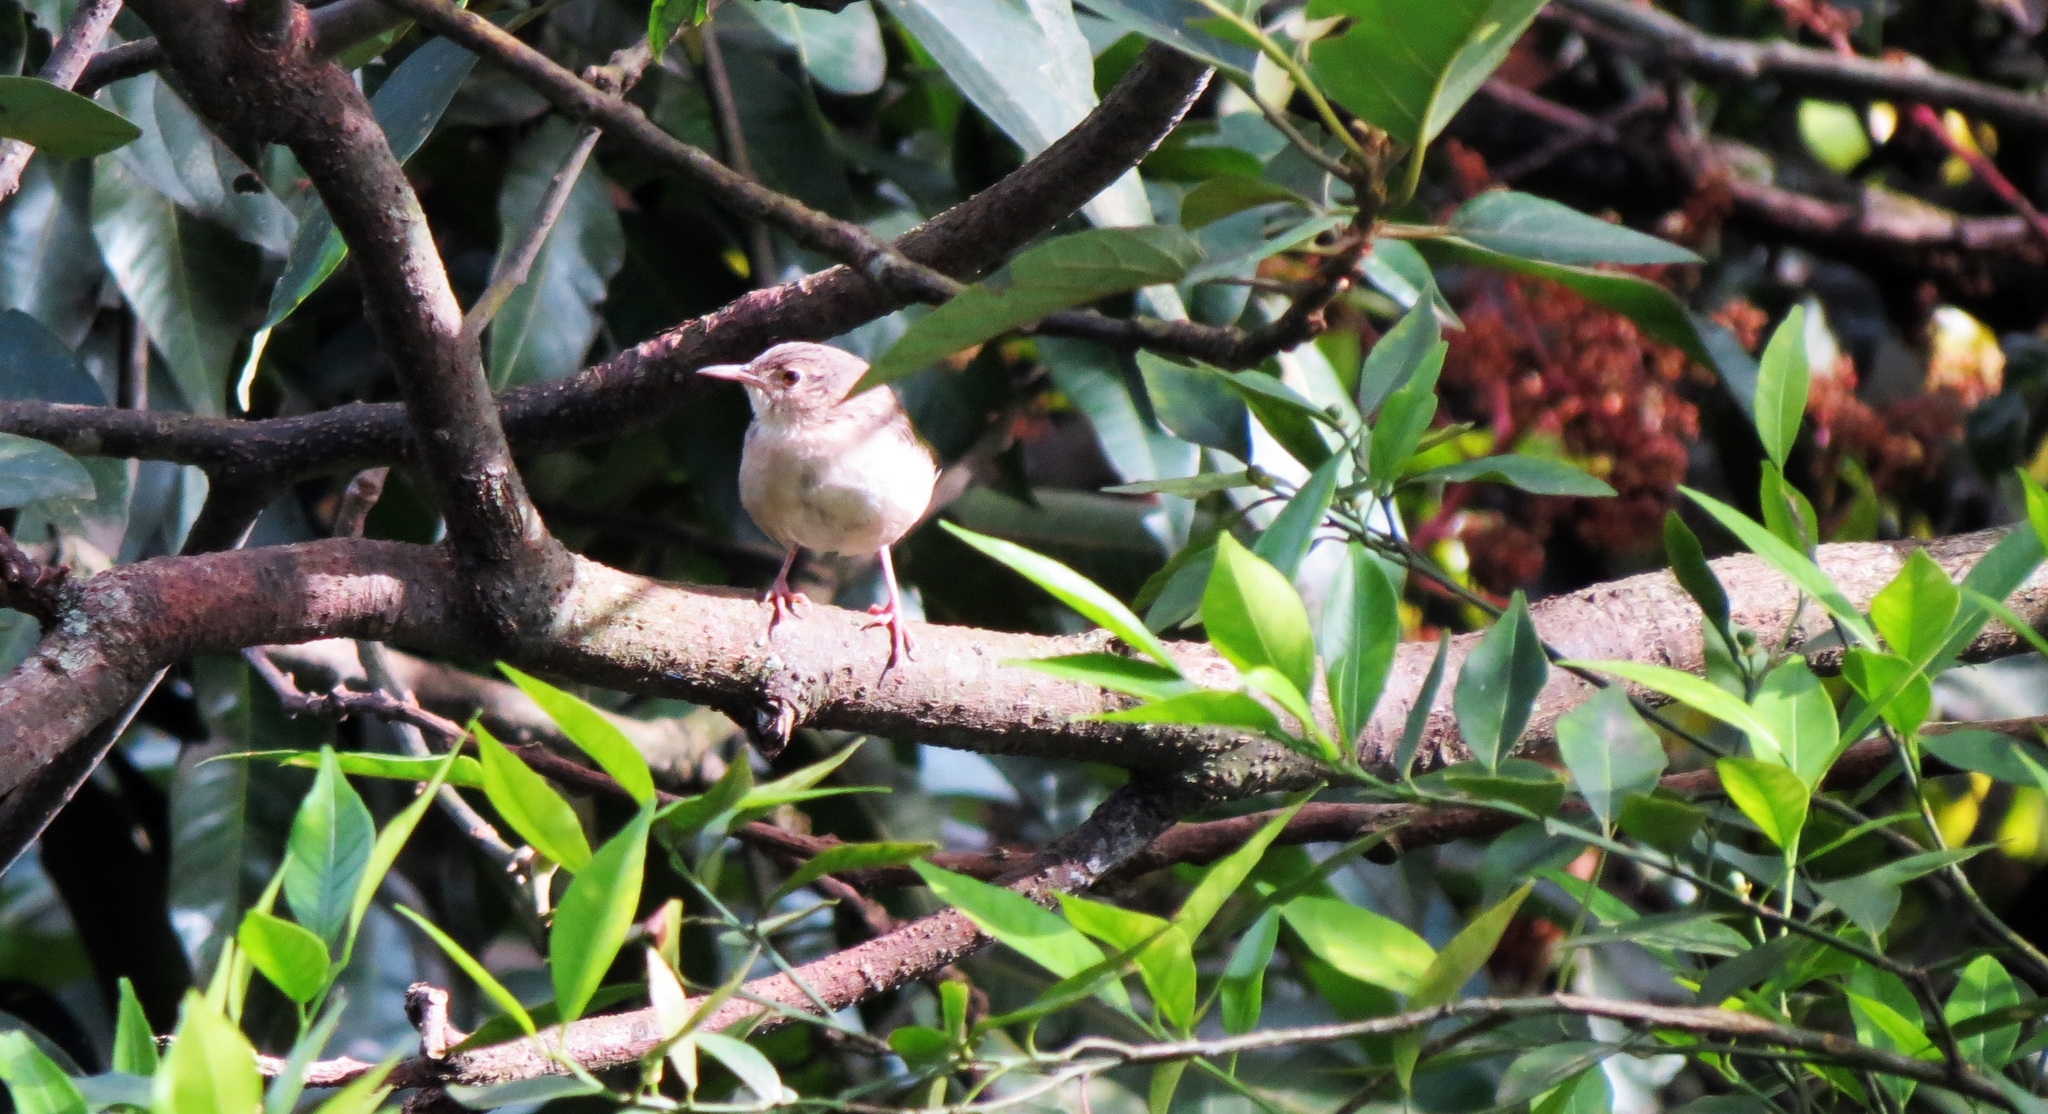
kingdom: Animalia
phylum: Chordata
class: Aves
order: Passeriformes
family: Troglodytidae
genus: Troglodytes
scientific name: Troglodytes aedon
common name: House wren
